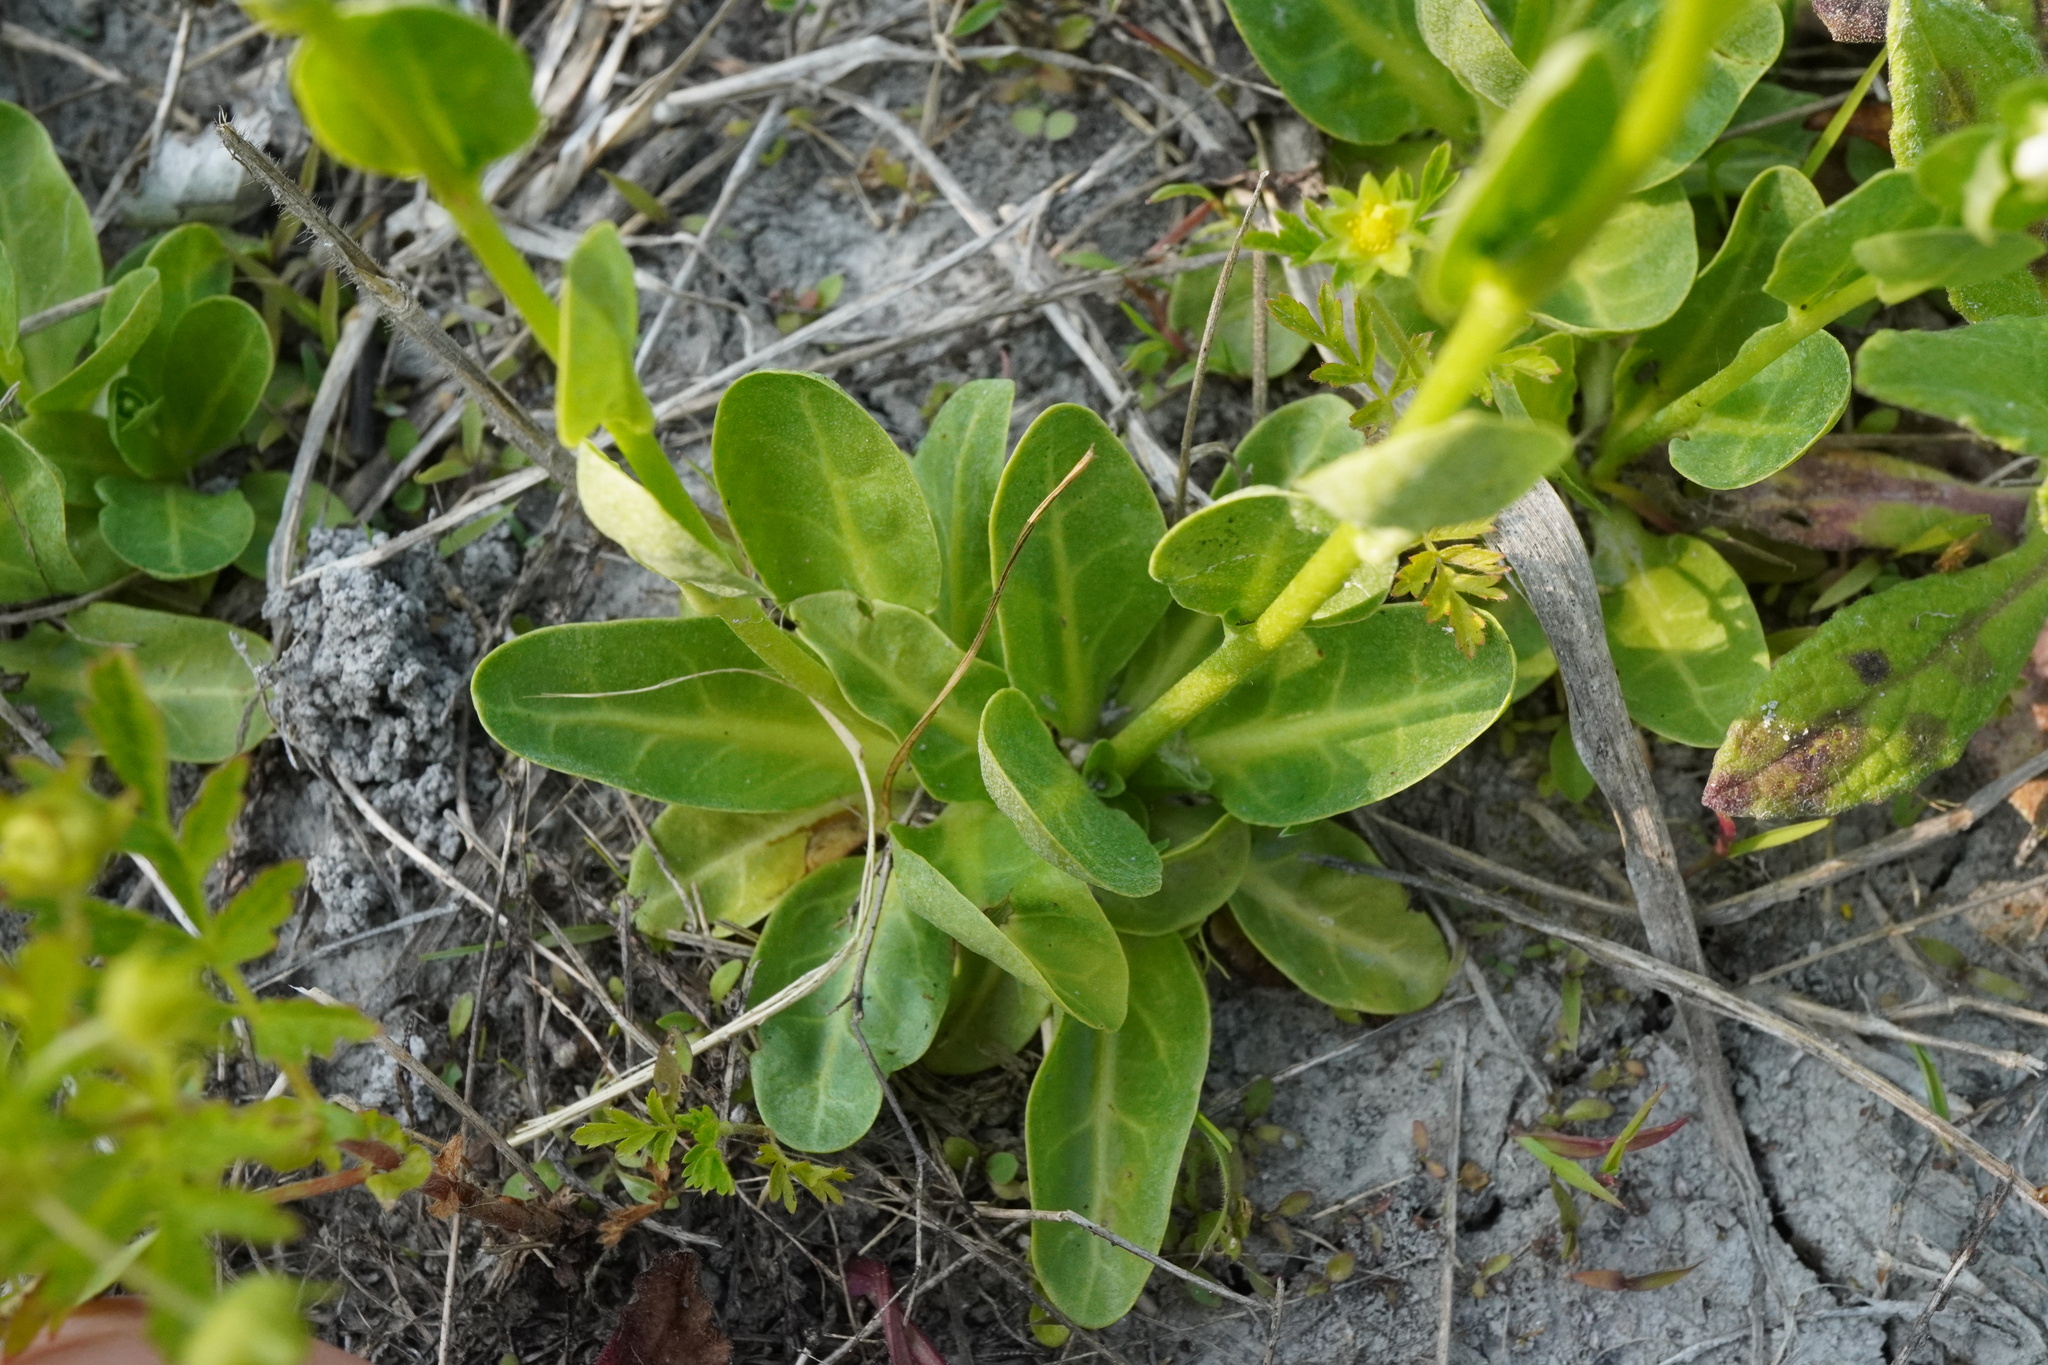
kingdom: Plantae
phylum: Tracheophyta
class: Magnoliopsida
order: Ericales
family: Primulaceae
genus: Samolus
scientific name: Samolus valerandi
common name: Brookweed
